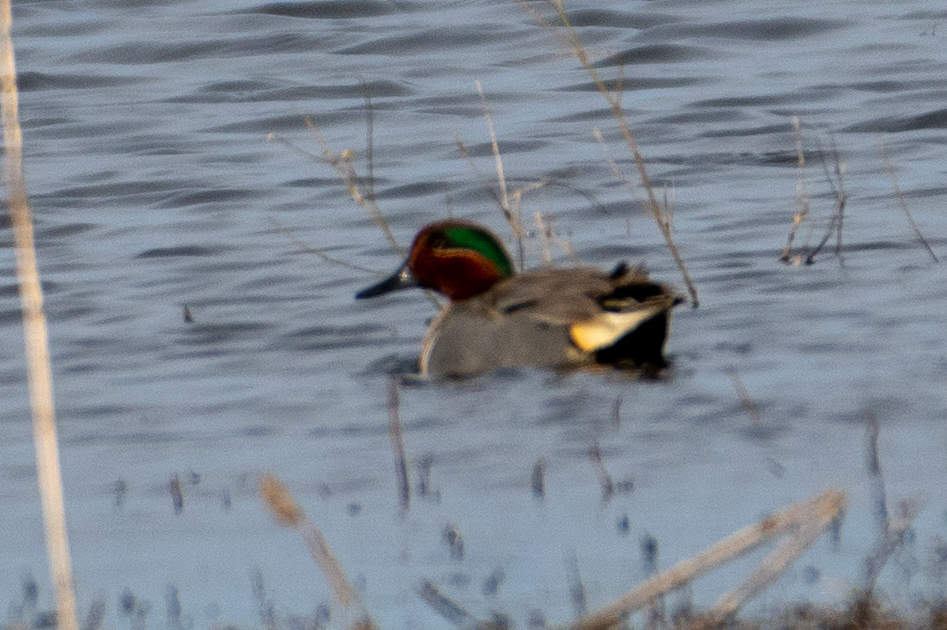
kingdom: Animalia
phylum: Chordata
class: Aves
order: Anseriformes
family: Anatidae
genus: Anas
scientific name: Anas crecca
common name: Eurasian teal
